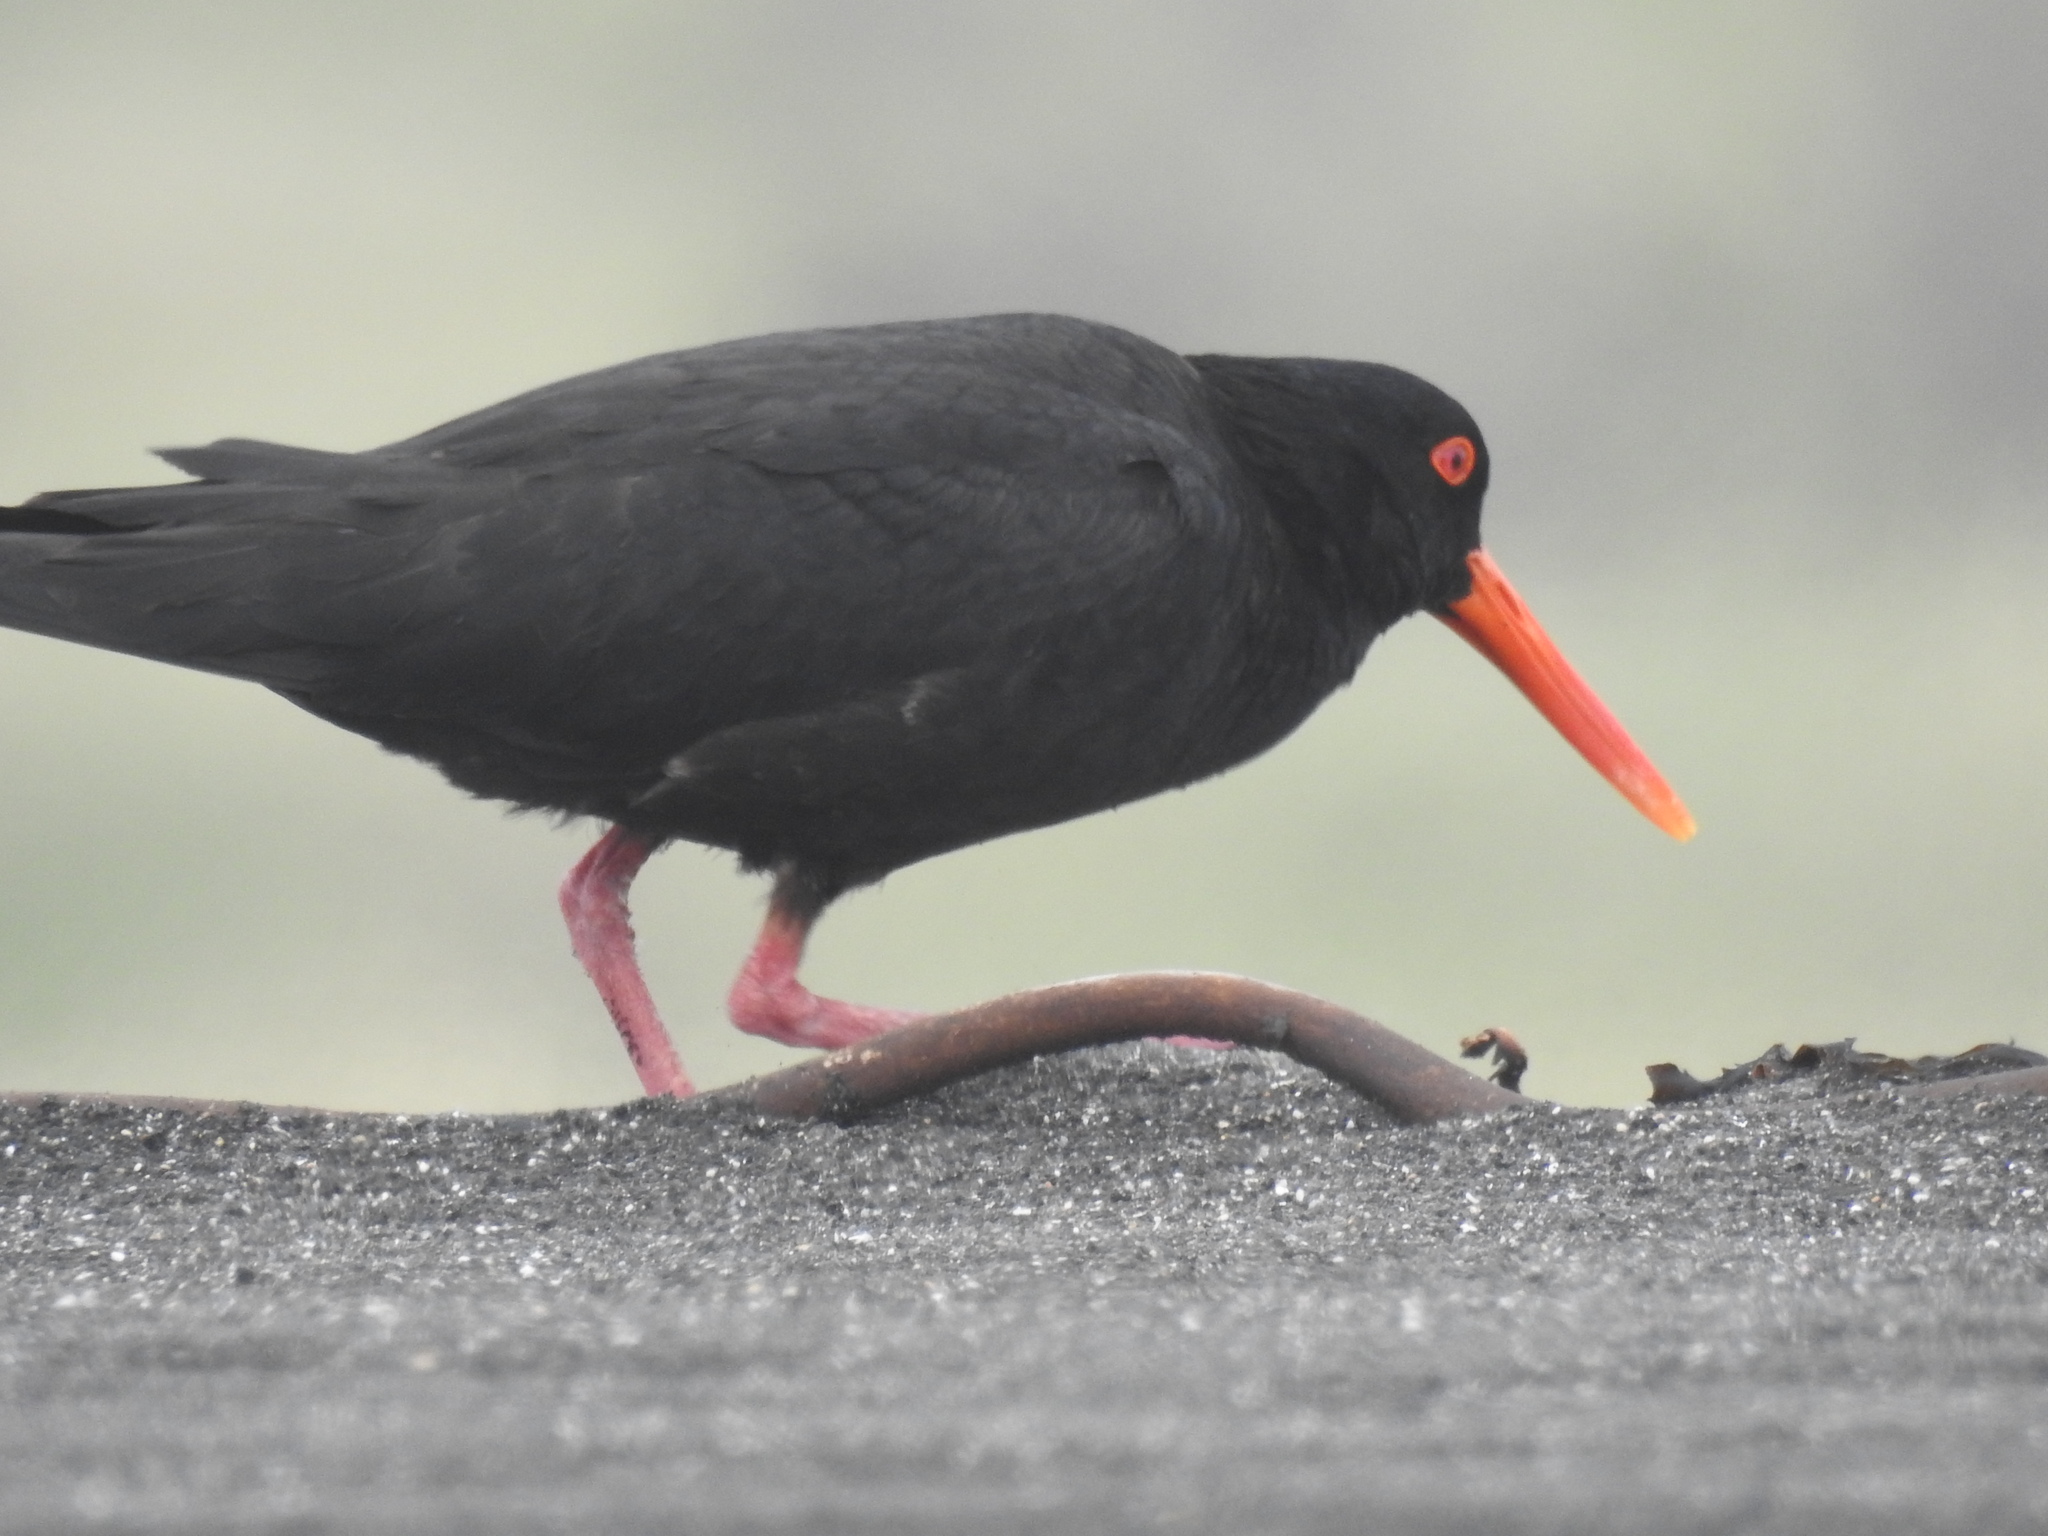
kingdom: Animalia
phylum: Chordata
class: Aves
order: Charadriiformes
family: Haematopodidae
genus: Haematopus
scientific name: Haematopus unicolor
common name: Variable oystercatcher
